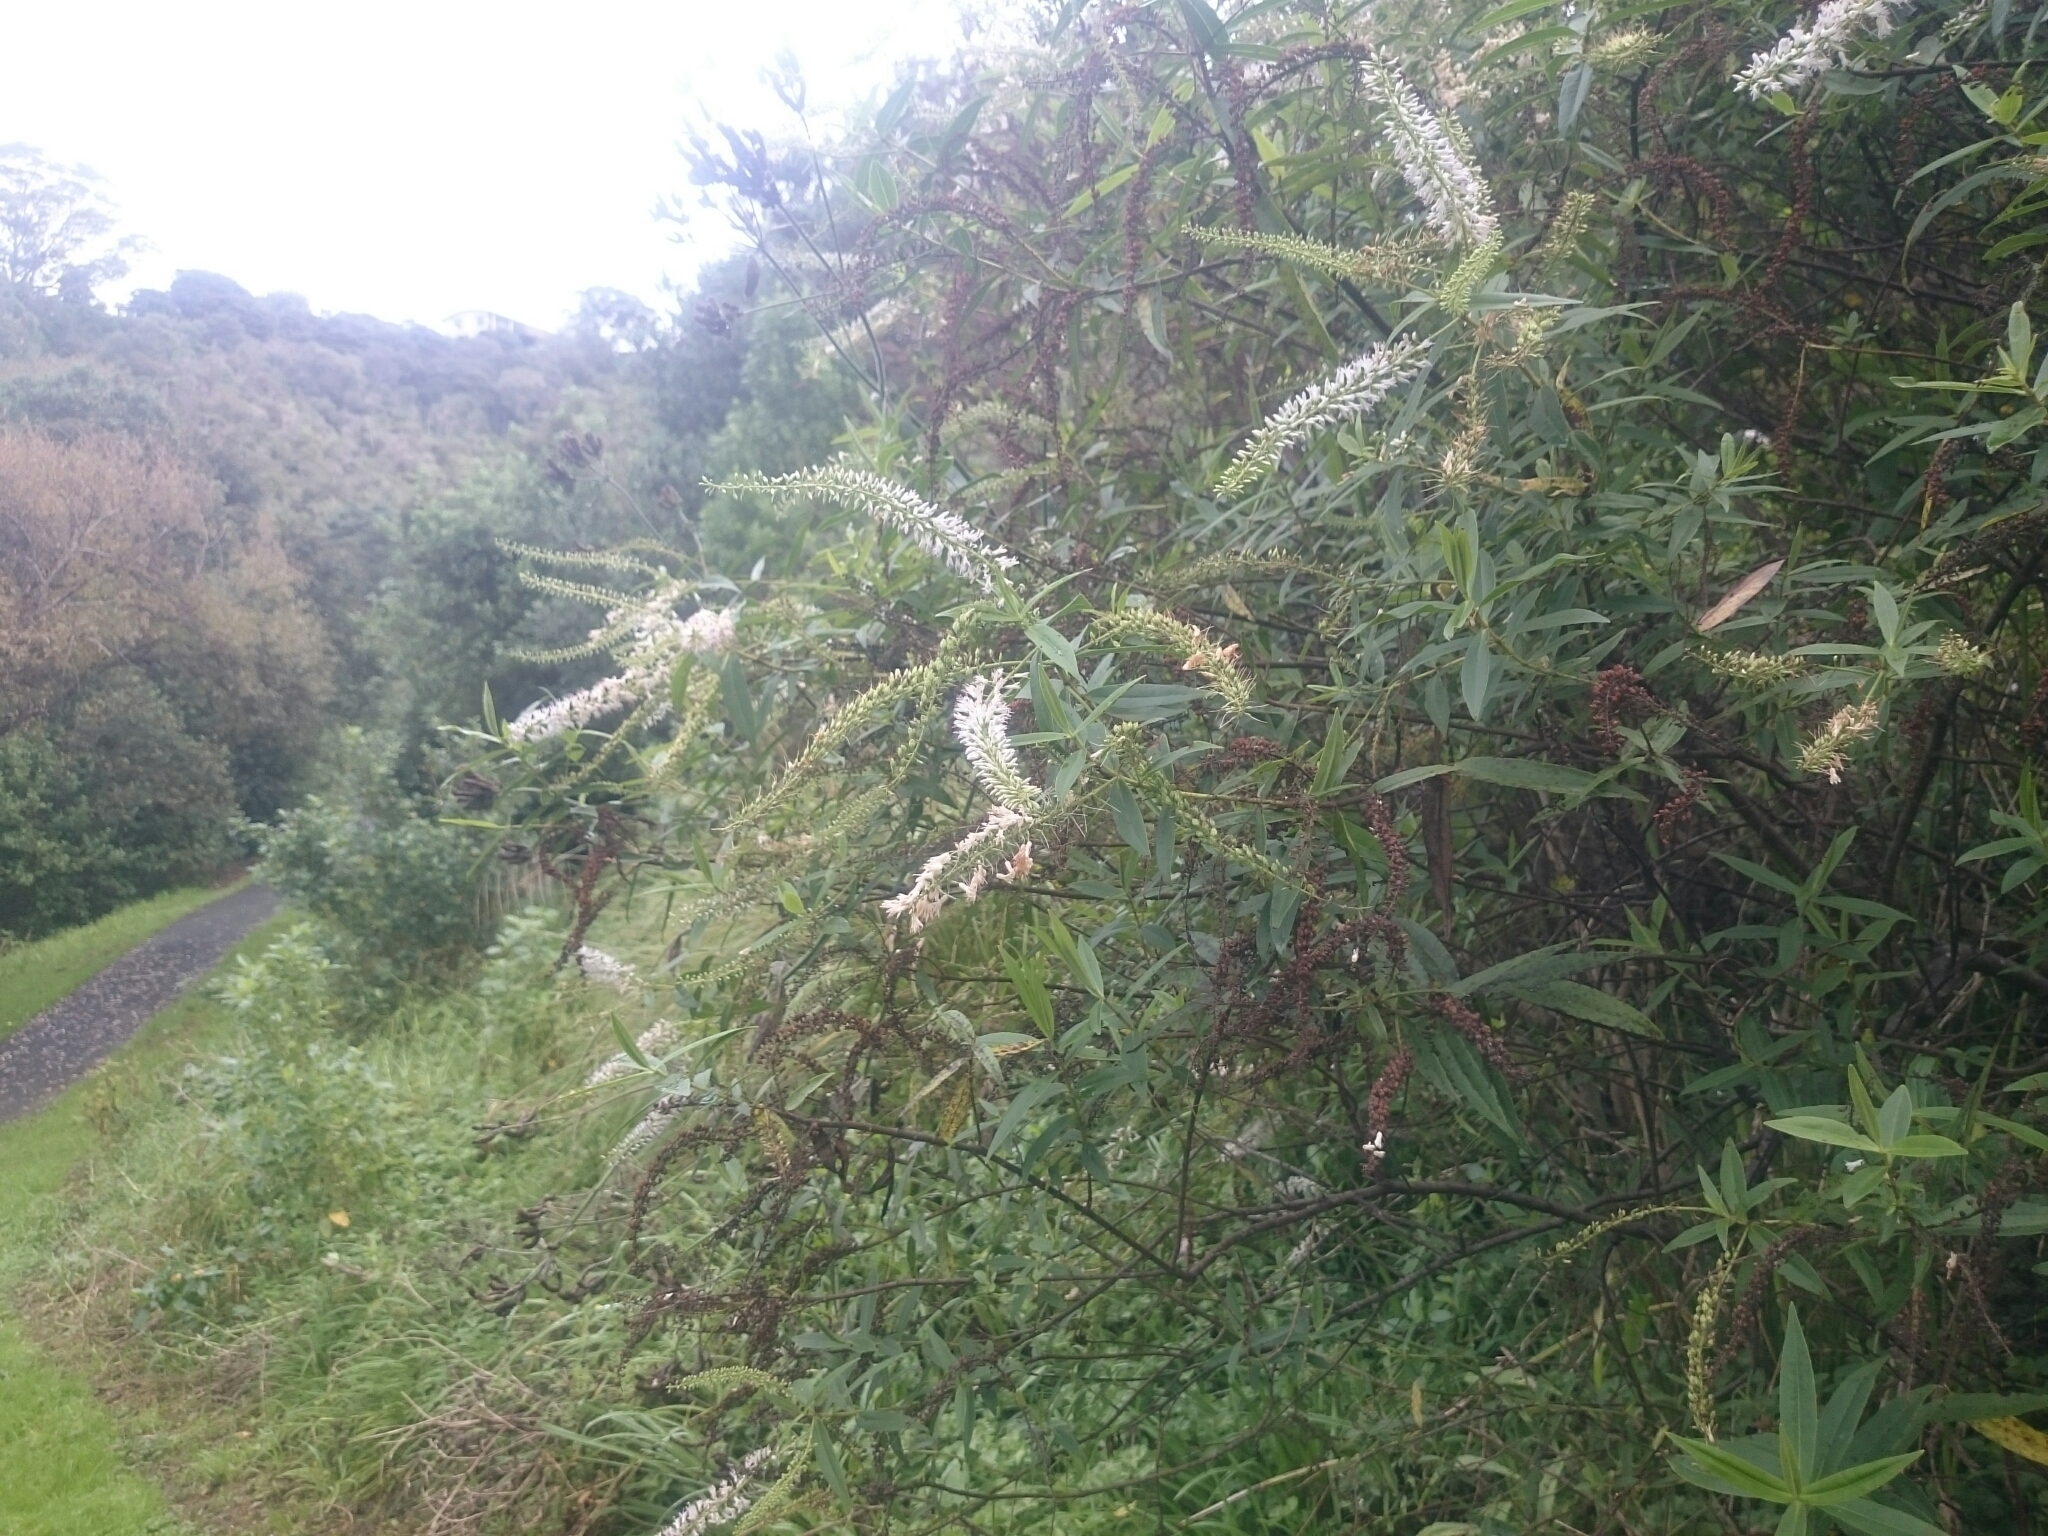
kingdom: Plantae
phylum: Tracheophyta
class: Magnoliopsida
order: Lamiales
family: Plantaginaceae
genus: Veronica
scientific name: Veronica stricta
